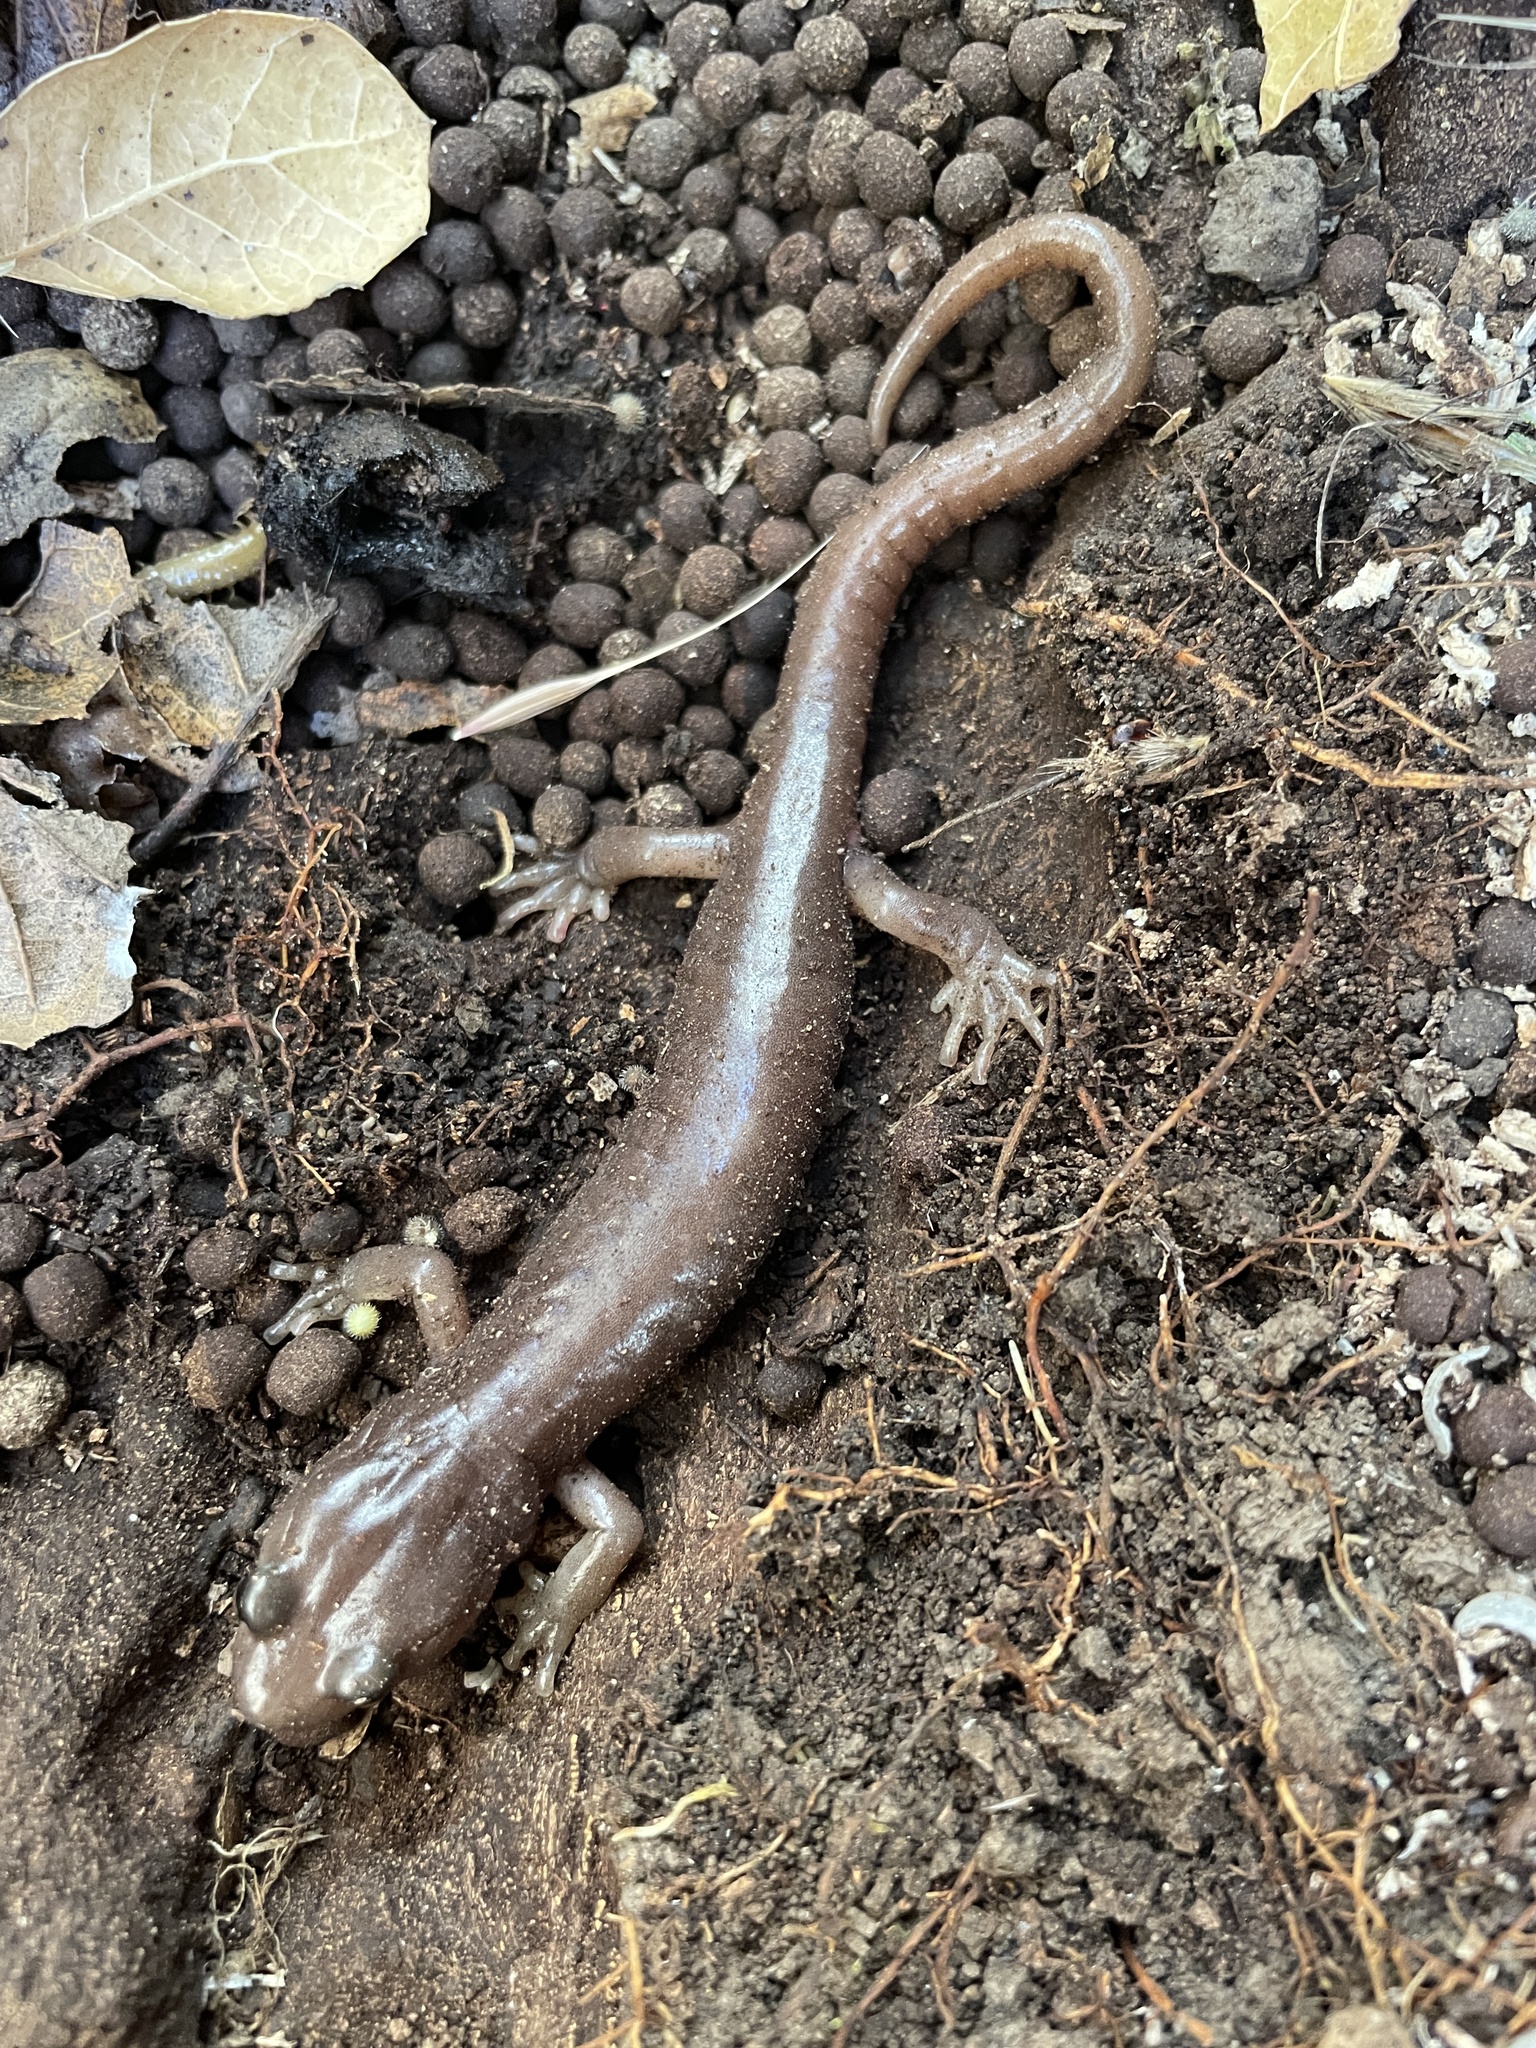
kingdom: Animalia
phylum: Chordata
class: Amphibia
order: Caudata
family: Plethodontidae
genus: Aneides
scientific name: Aneides lugubris
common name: Arboreal salamander
